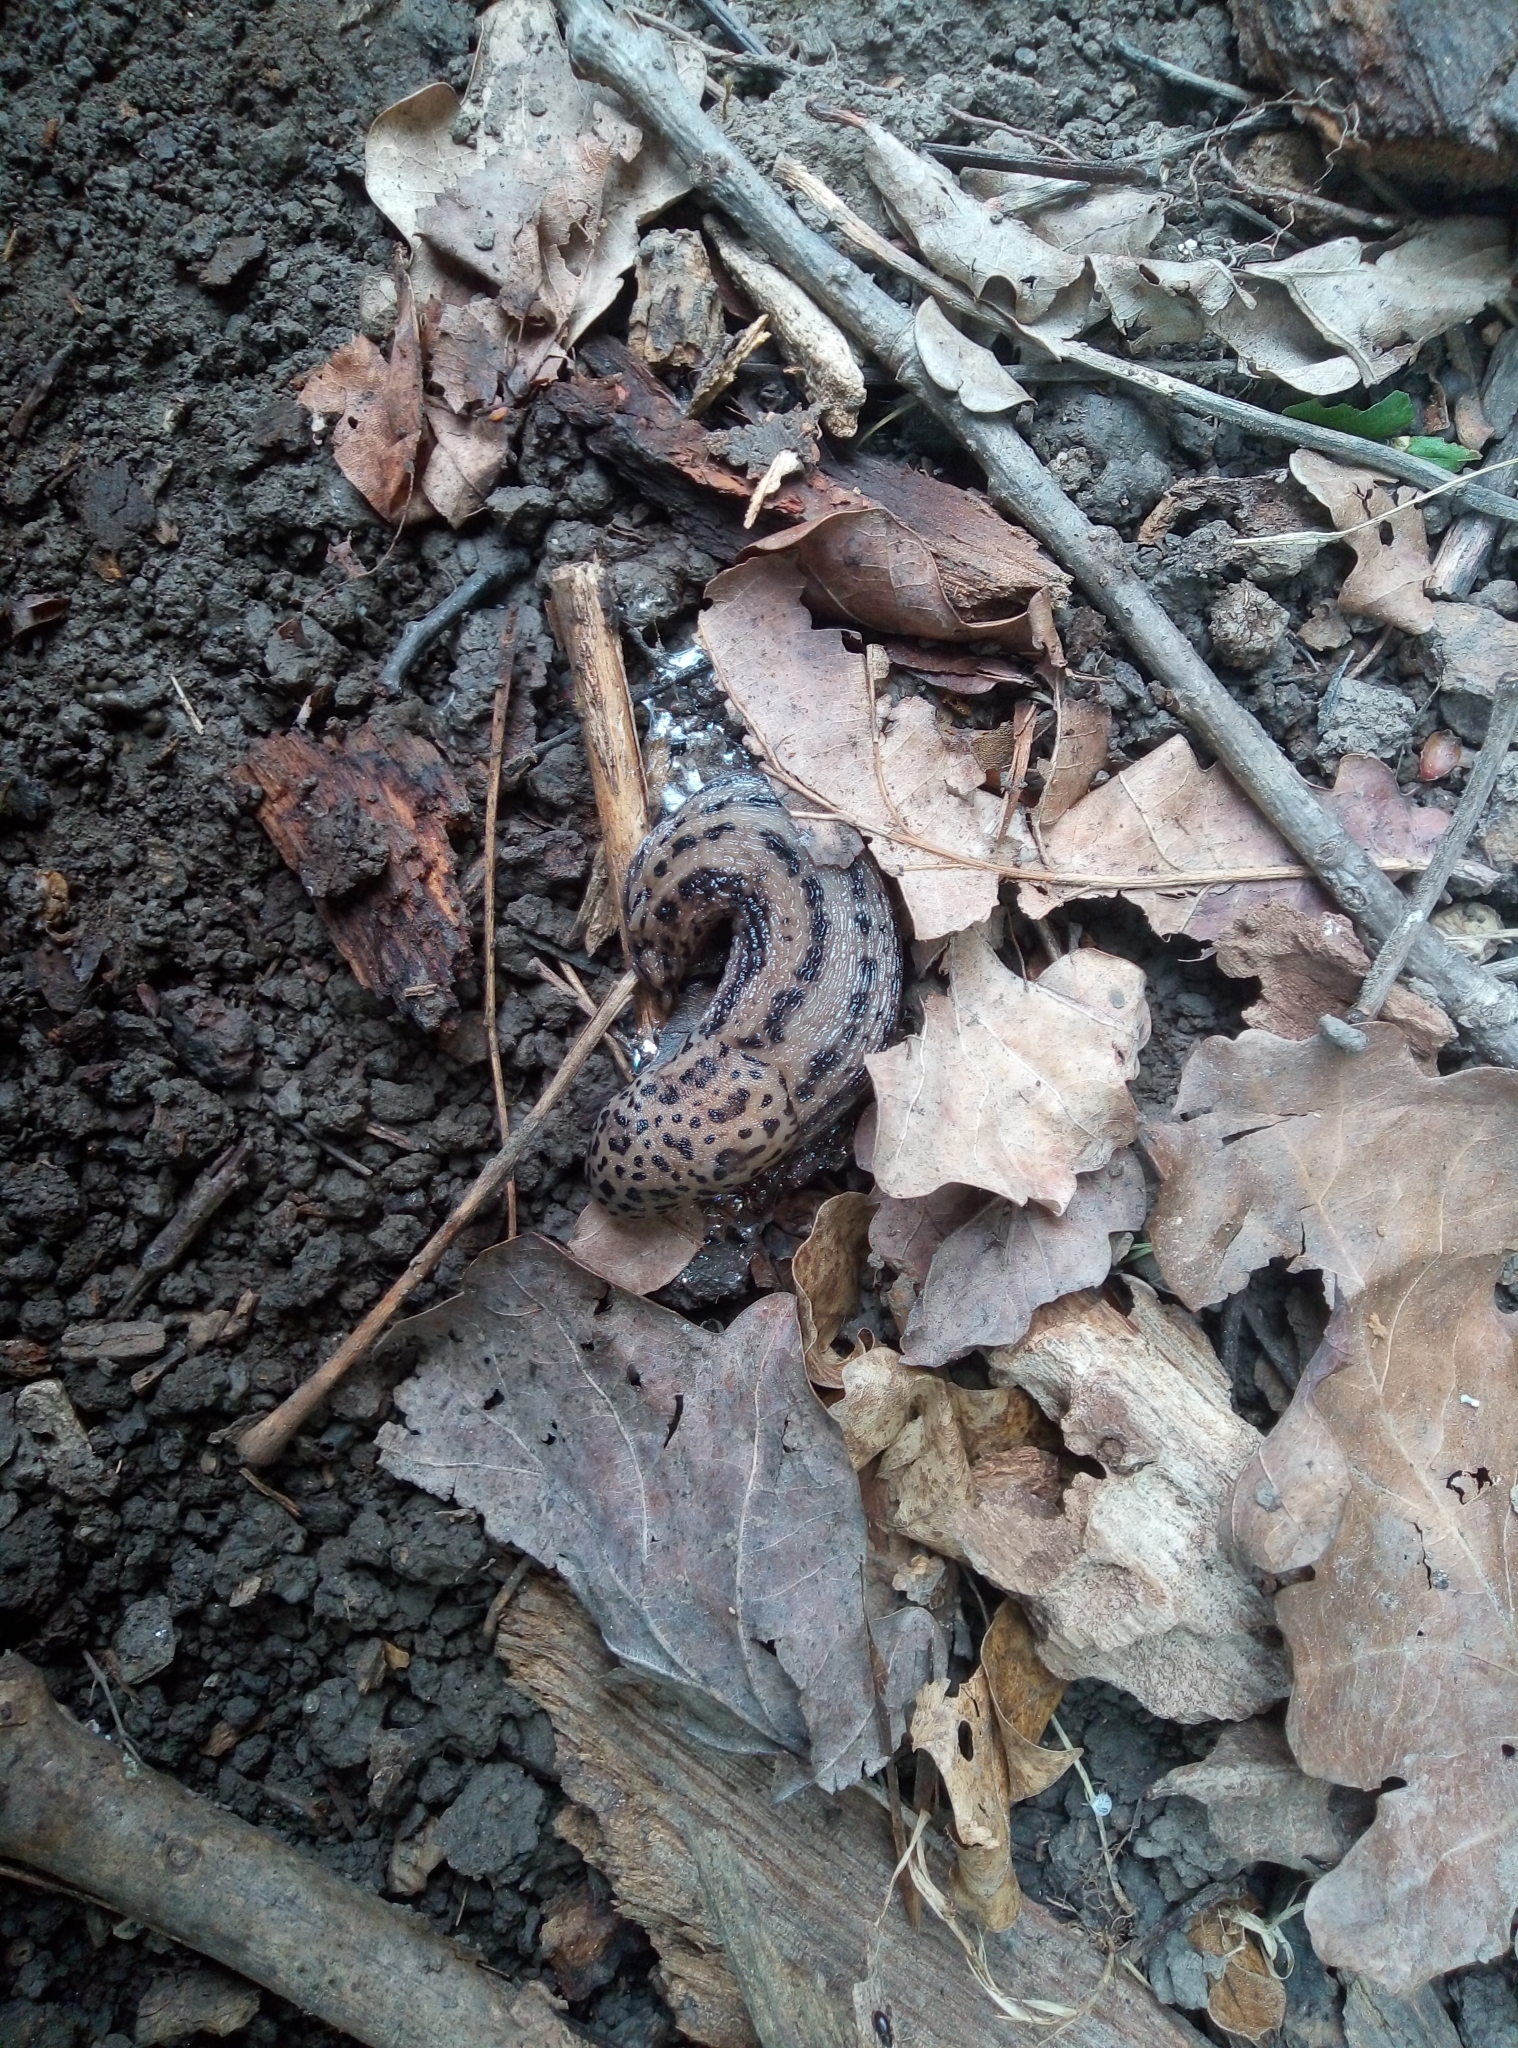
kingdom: Animalia
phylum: Mollusca
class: Gastropoda
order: Stylommatophora
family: Limacidae
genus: Limax
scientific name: Limax maximus
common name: Great grey slug
